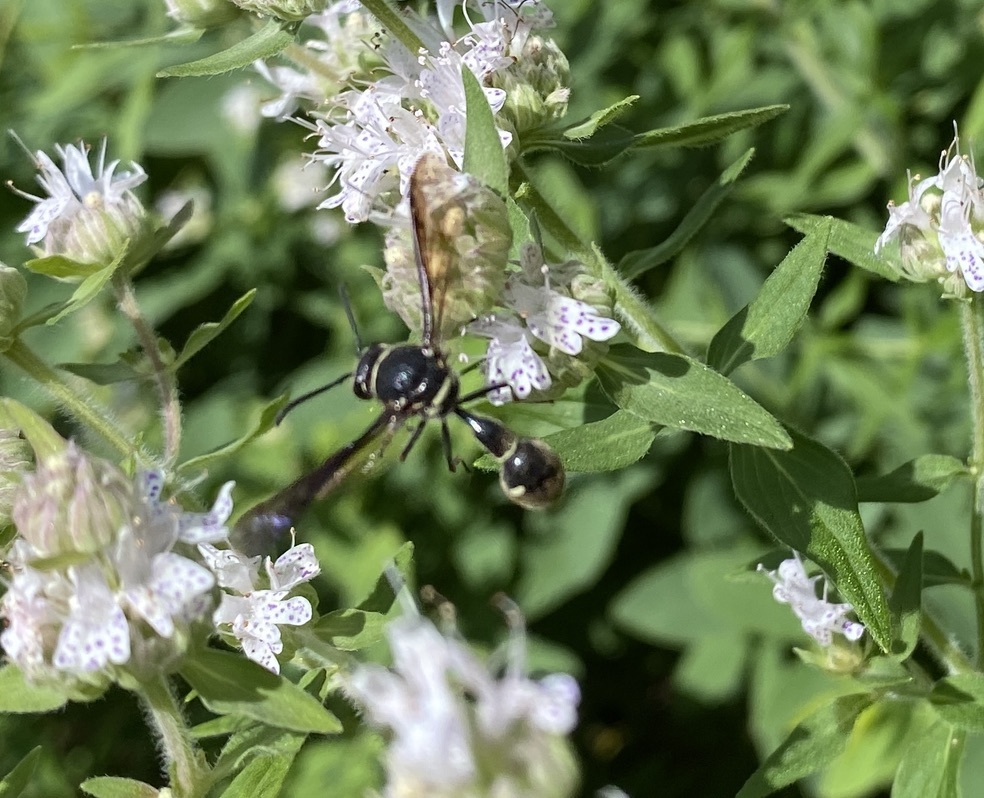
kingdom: Animalia
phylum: Arthropoda
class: Insecta
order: Hymenoptera
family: Vespidae
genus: Eumenes
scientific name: Eumenes fraternus
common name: Fraternal potter wasp
